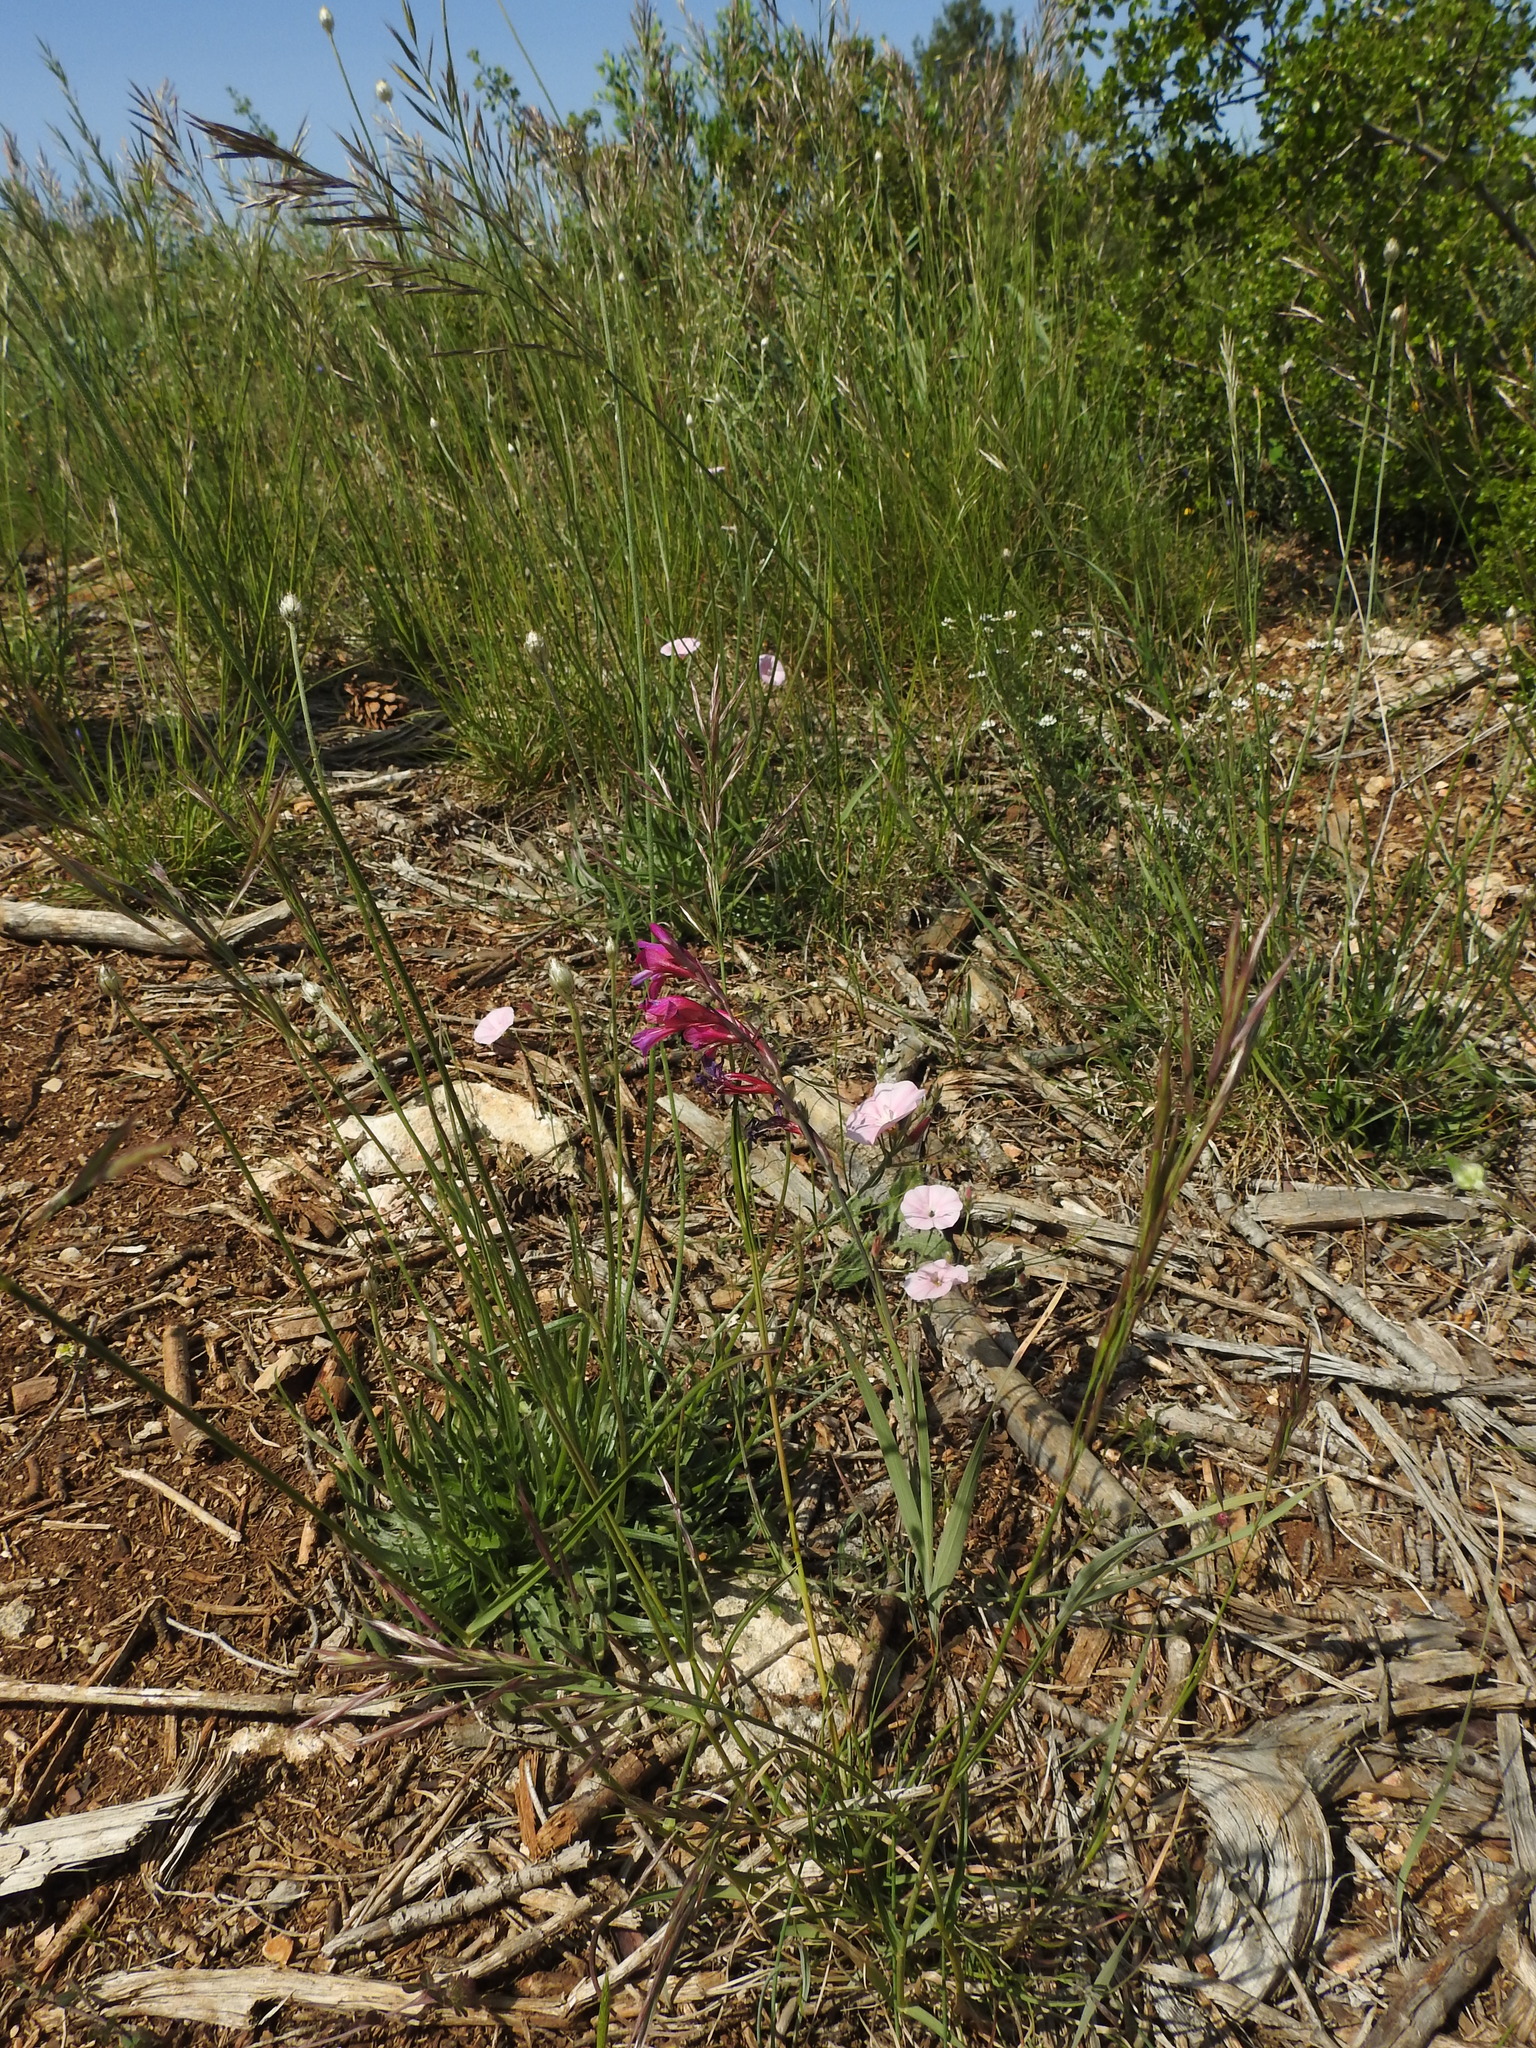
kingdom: Plantae
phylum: Tracheophyta
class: Liliopsida
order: Asparagales
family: Iridaceae
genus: Gladiolus
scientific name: Gladiolus dubius
